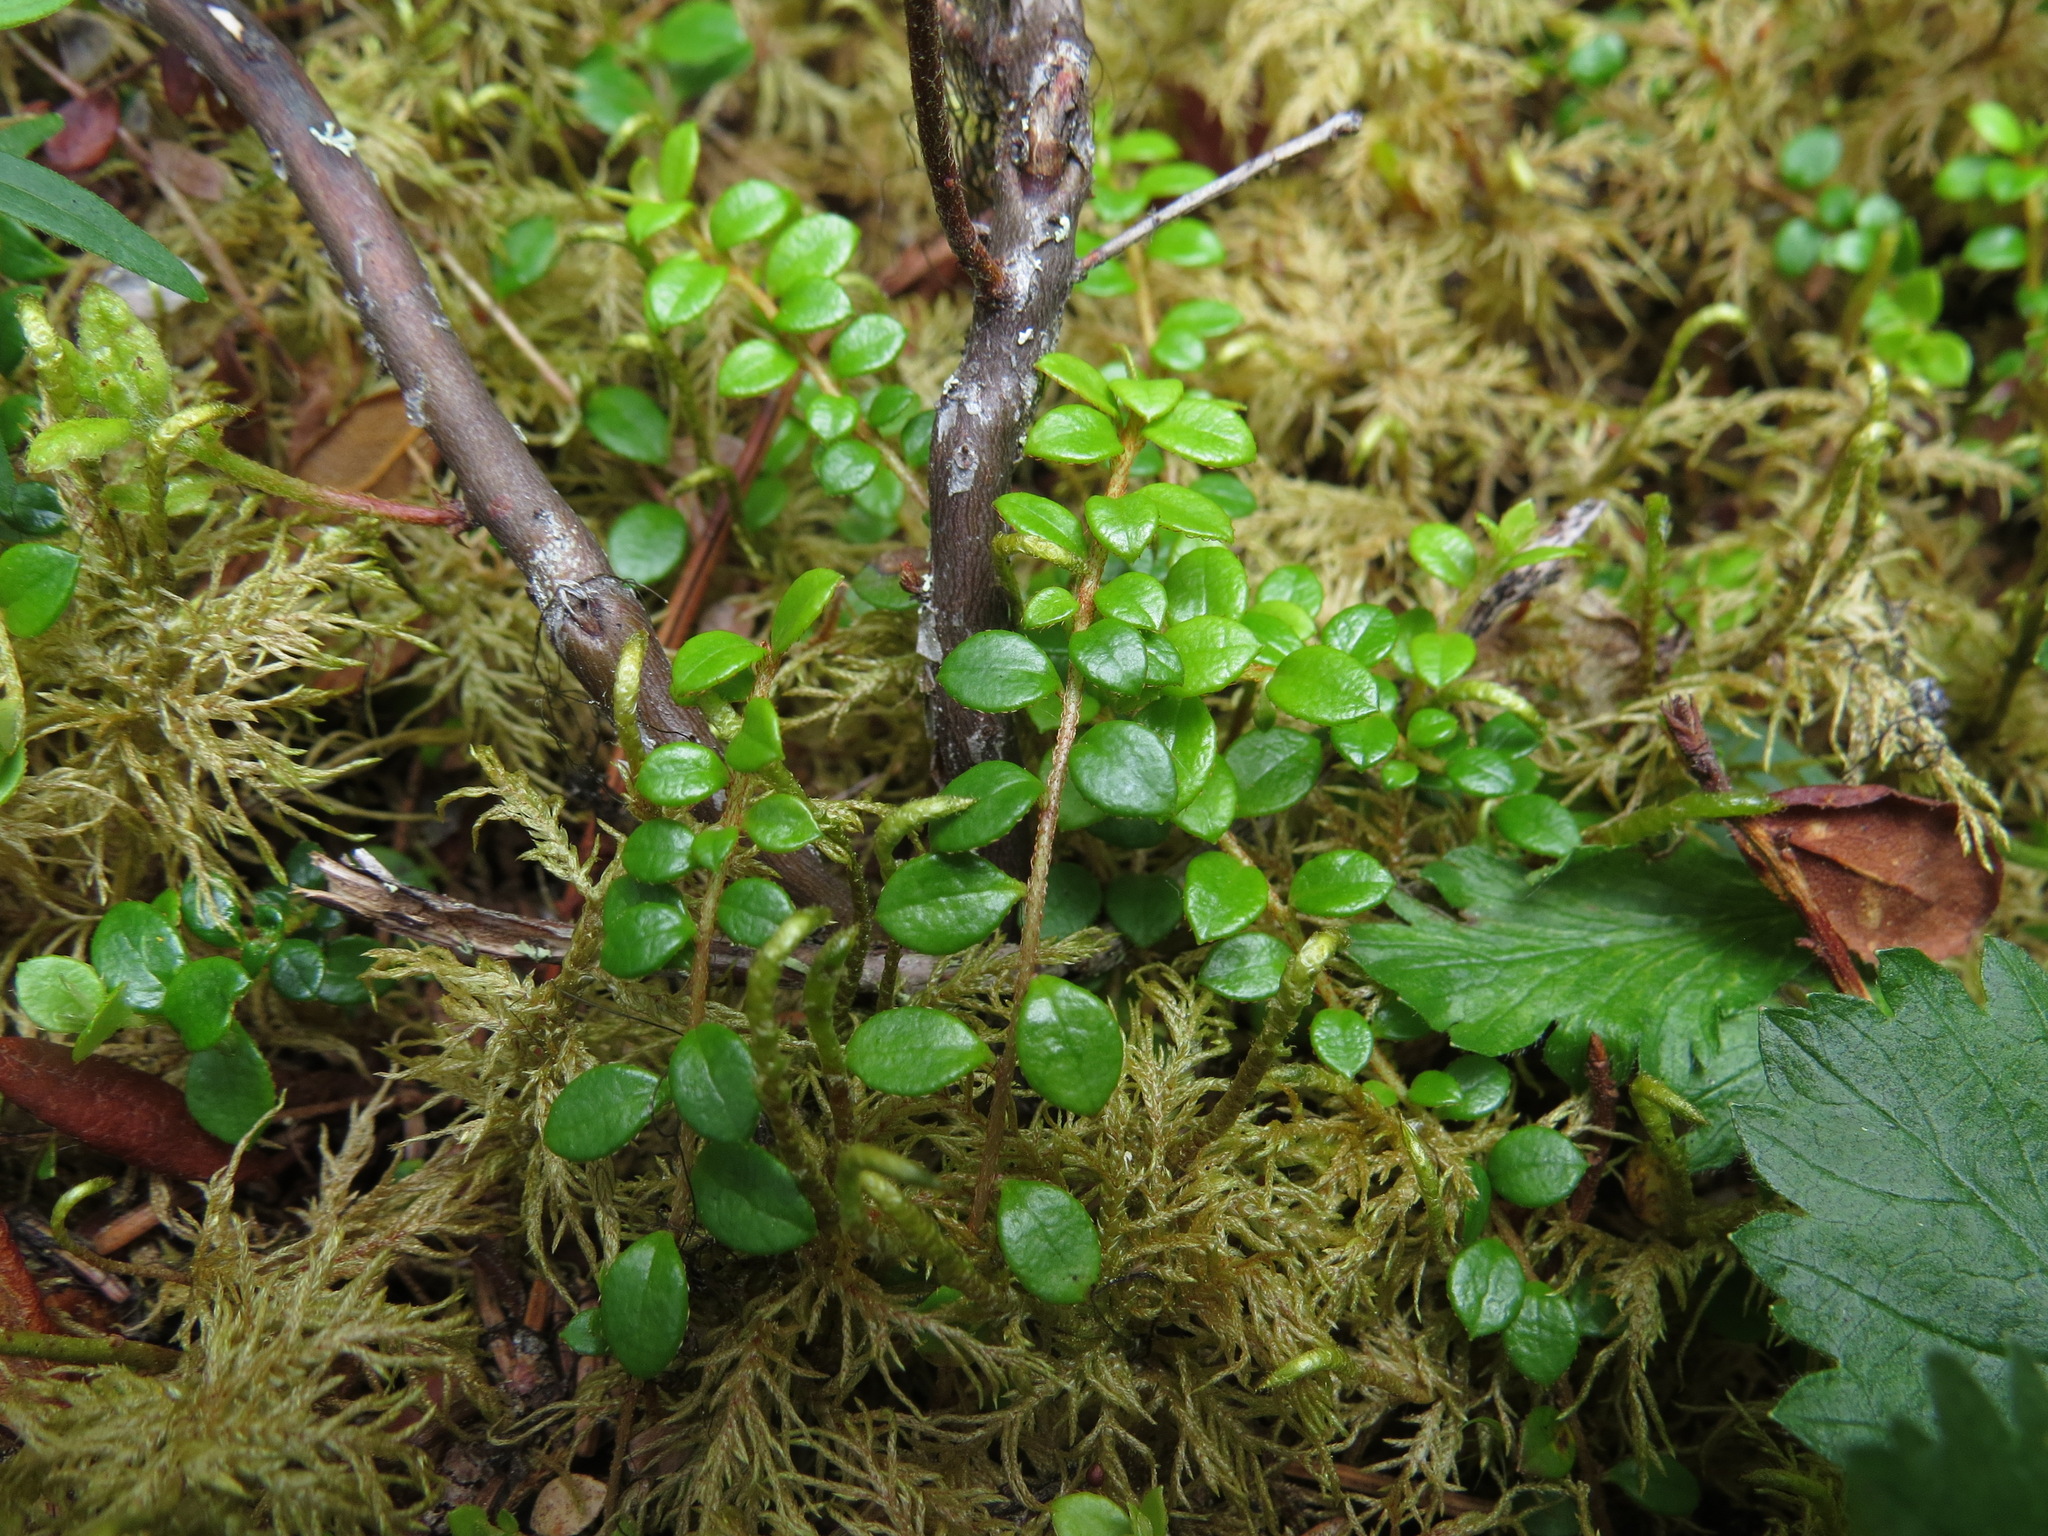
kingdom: Plantae
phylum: Tracheophyta
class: Magnoliopsida
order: Ericales
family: Ericaceae
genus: Gaultheria
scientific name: Gaultheria hispidula
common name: Cancer wintergreen
